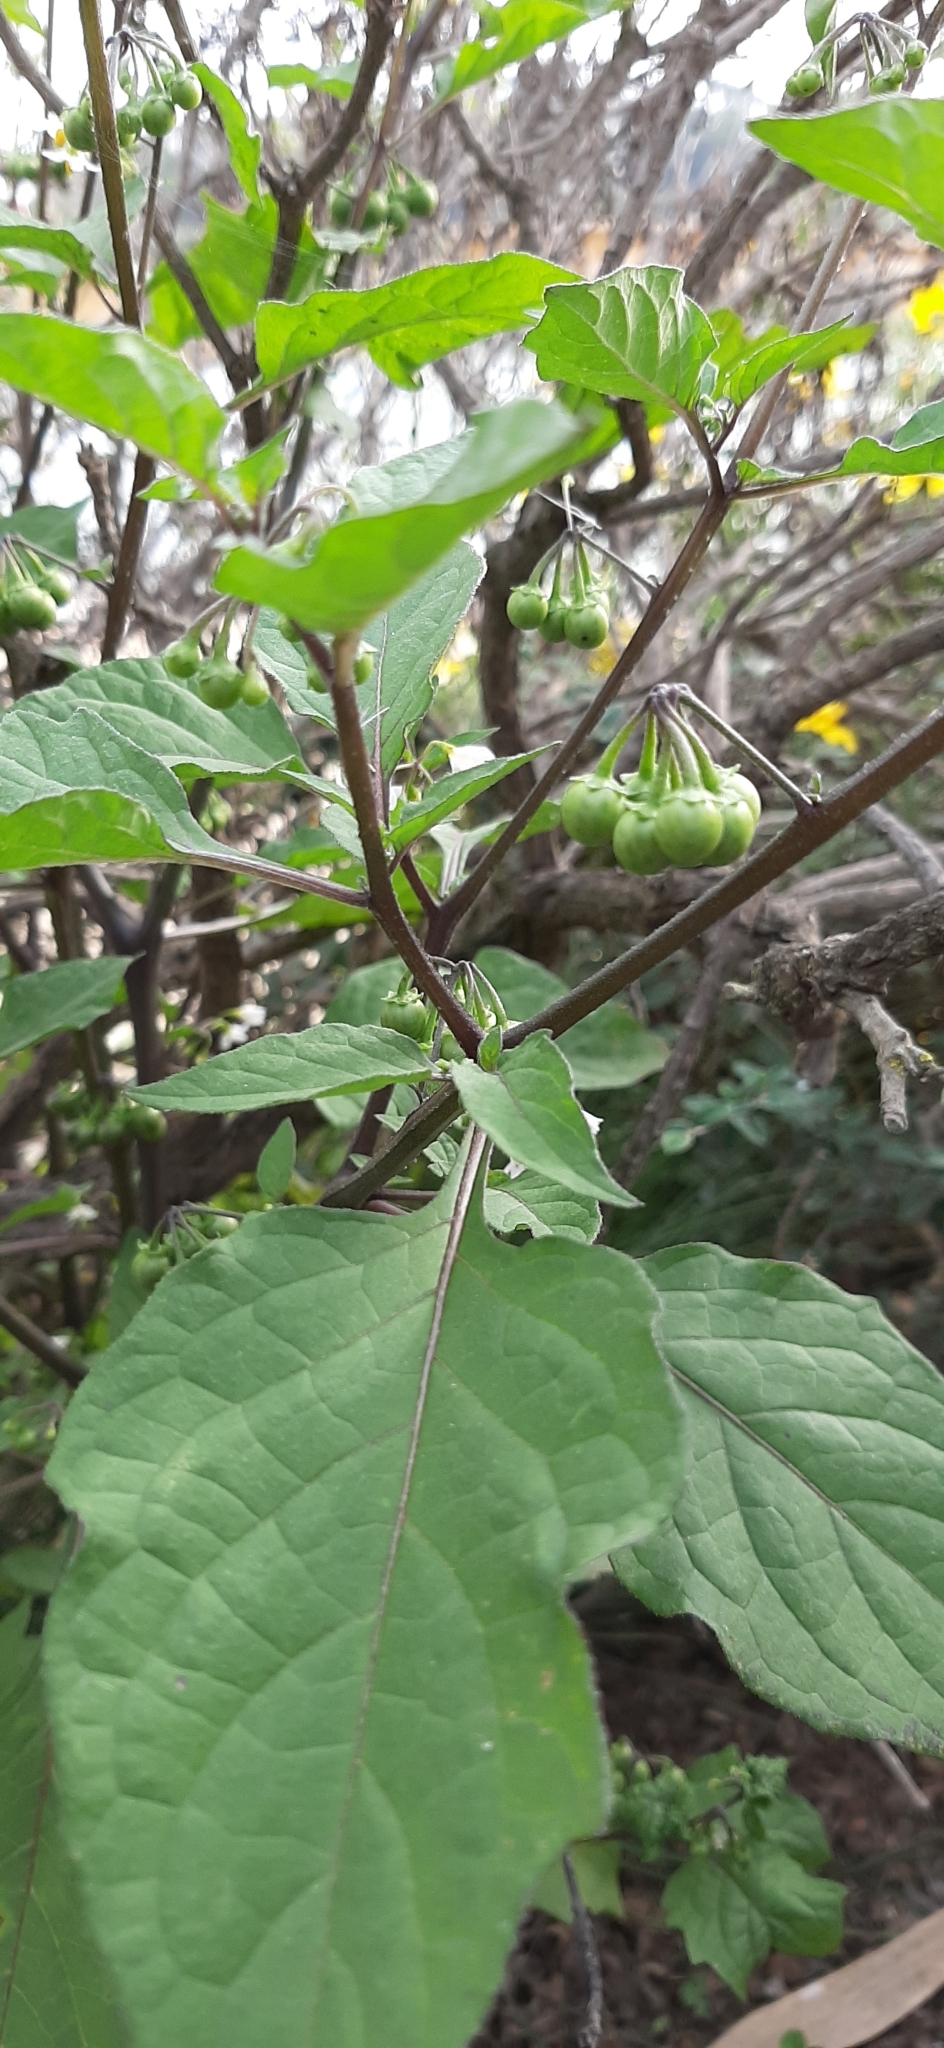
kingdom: Plantae
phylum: Tracheophyta
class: Magnoliopsida
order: Solanales
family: Solanaceae
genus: Solanum
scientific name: Solanum nigrum
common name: Black nightshade
